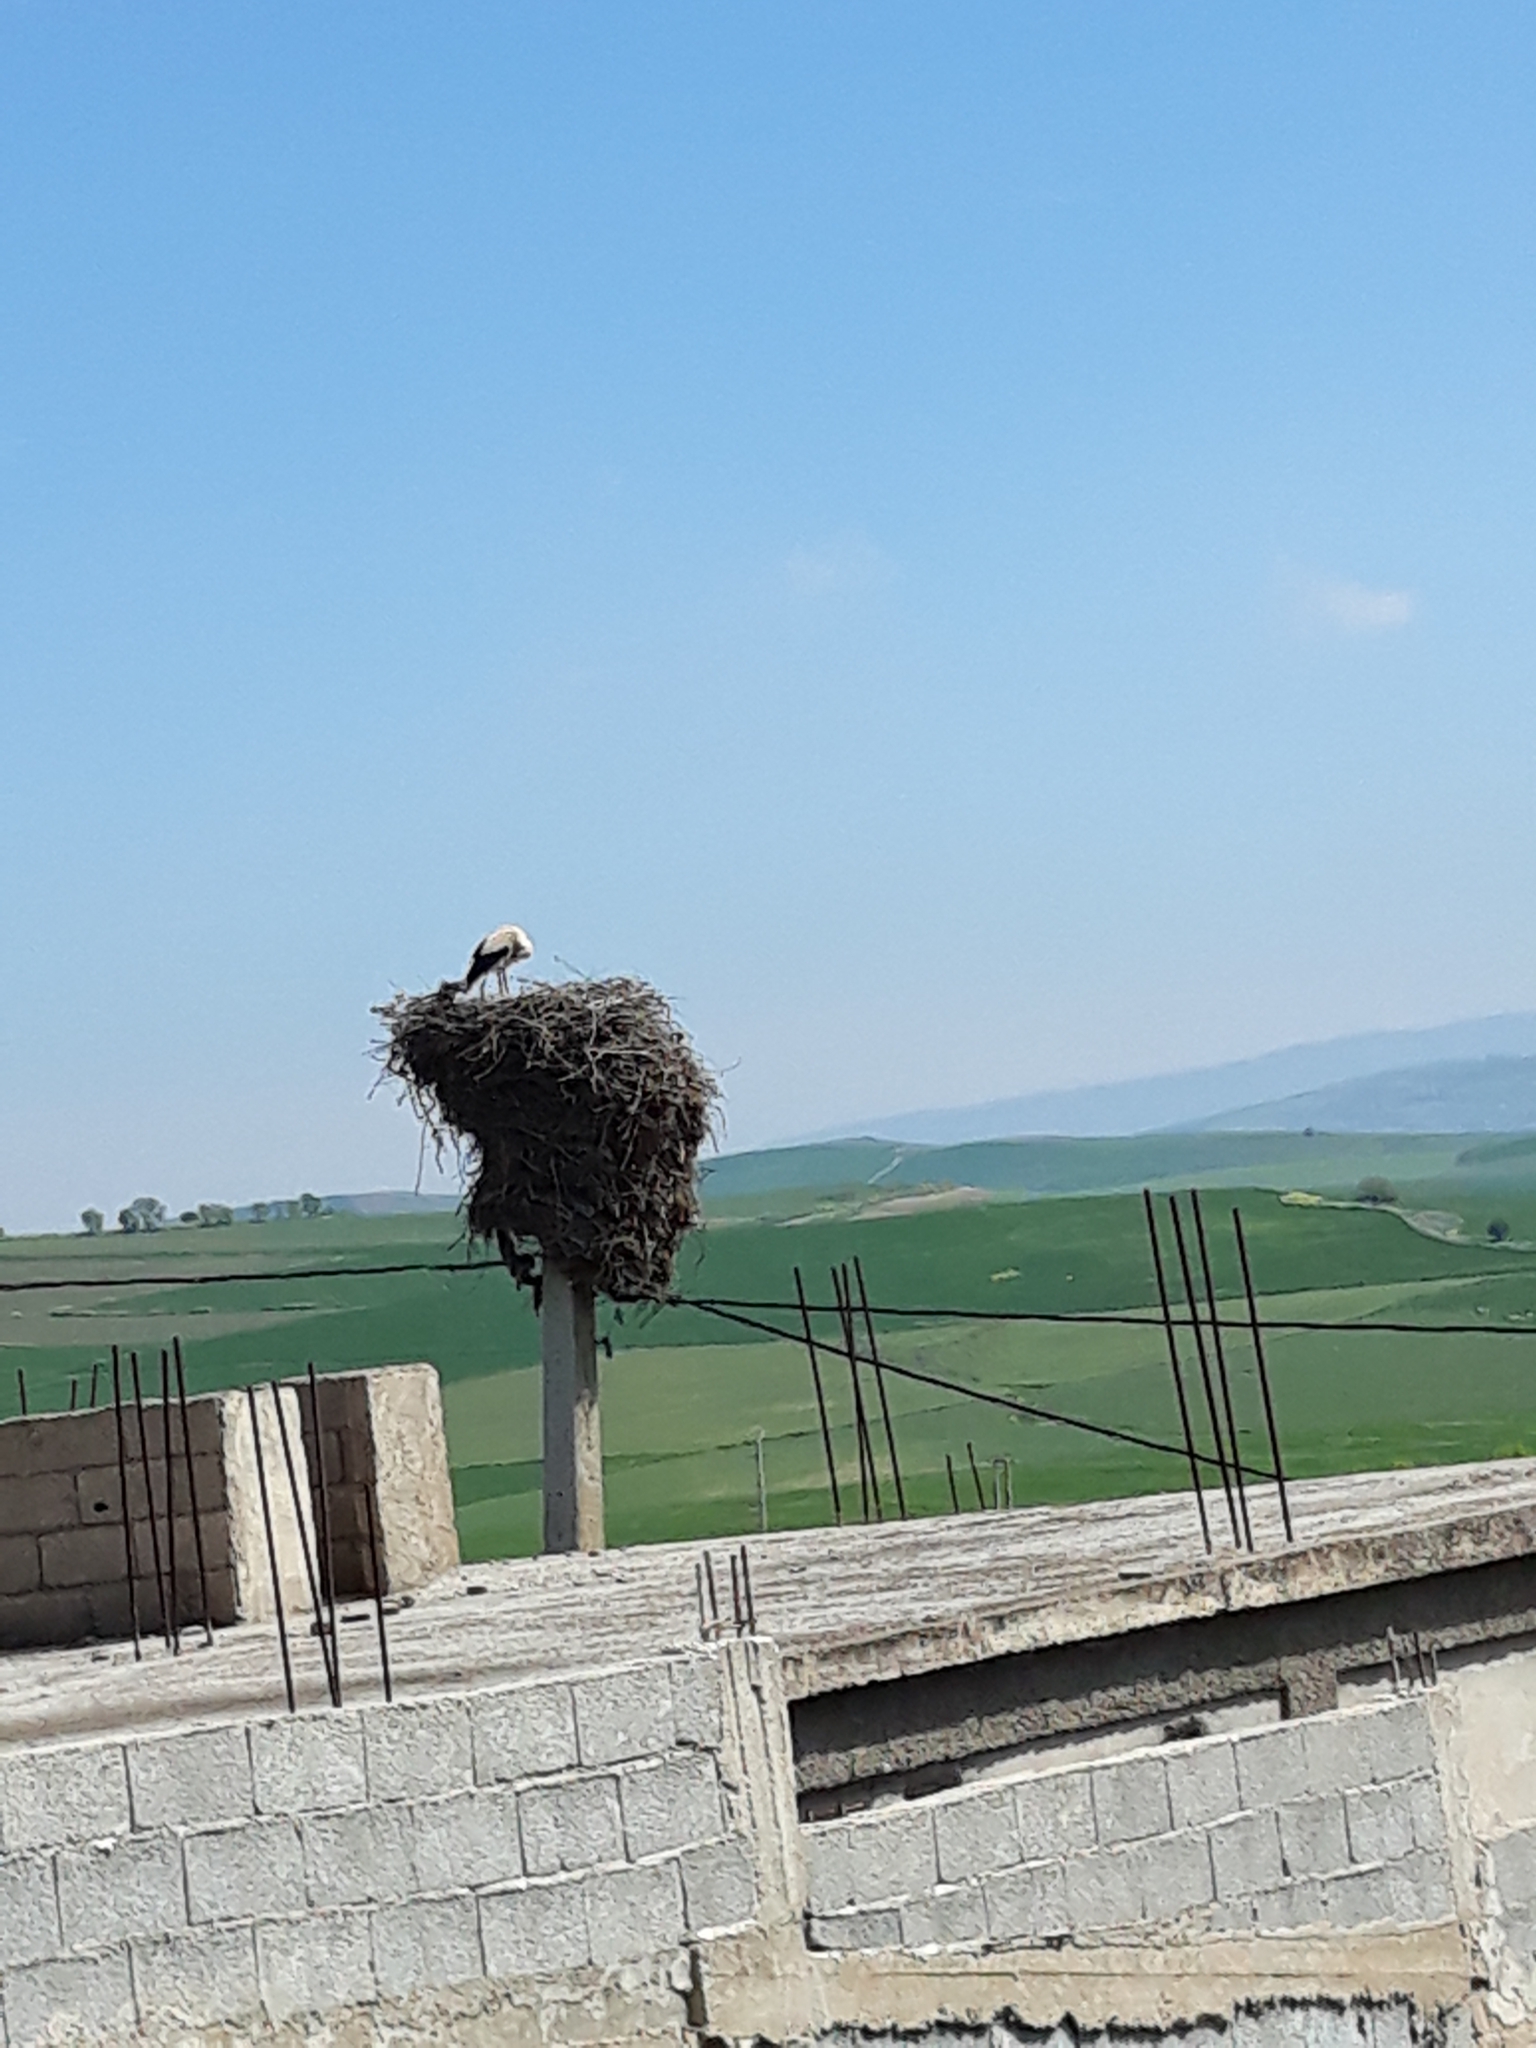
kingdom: Animalia
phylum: Chordata
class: Aves
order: Ciconiiformes
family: Ciconiidae
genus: Ciconia
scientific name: Ciconia ciconia
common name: White stork
